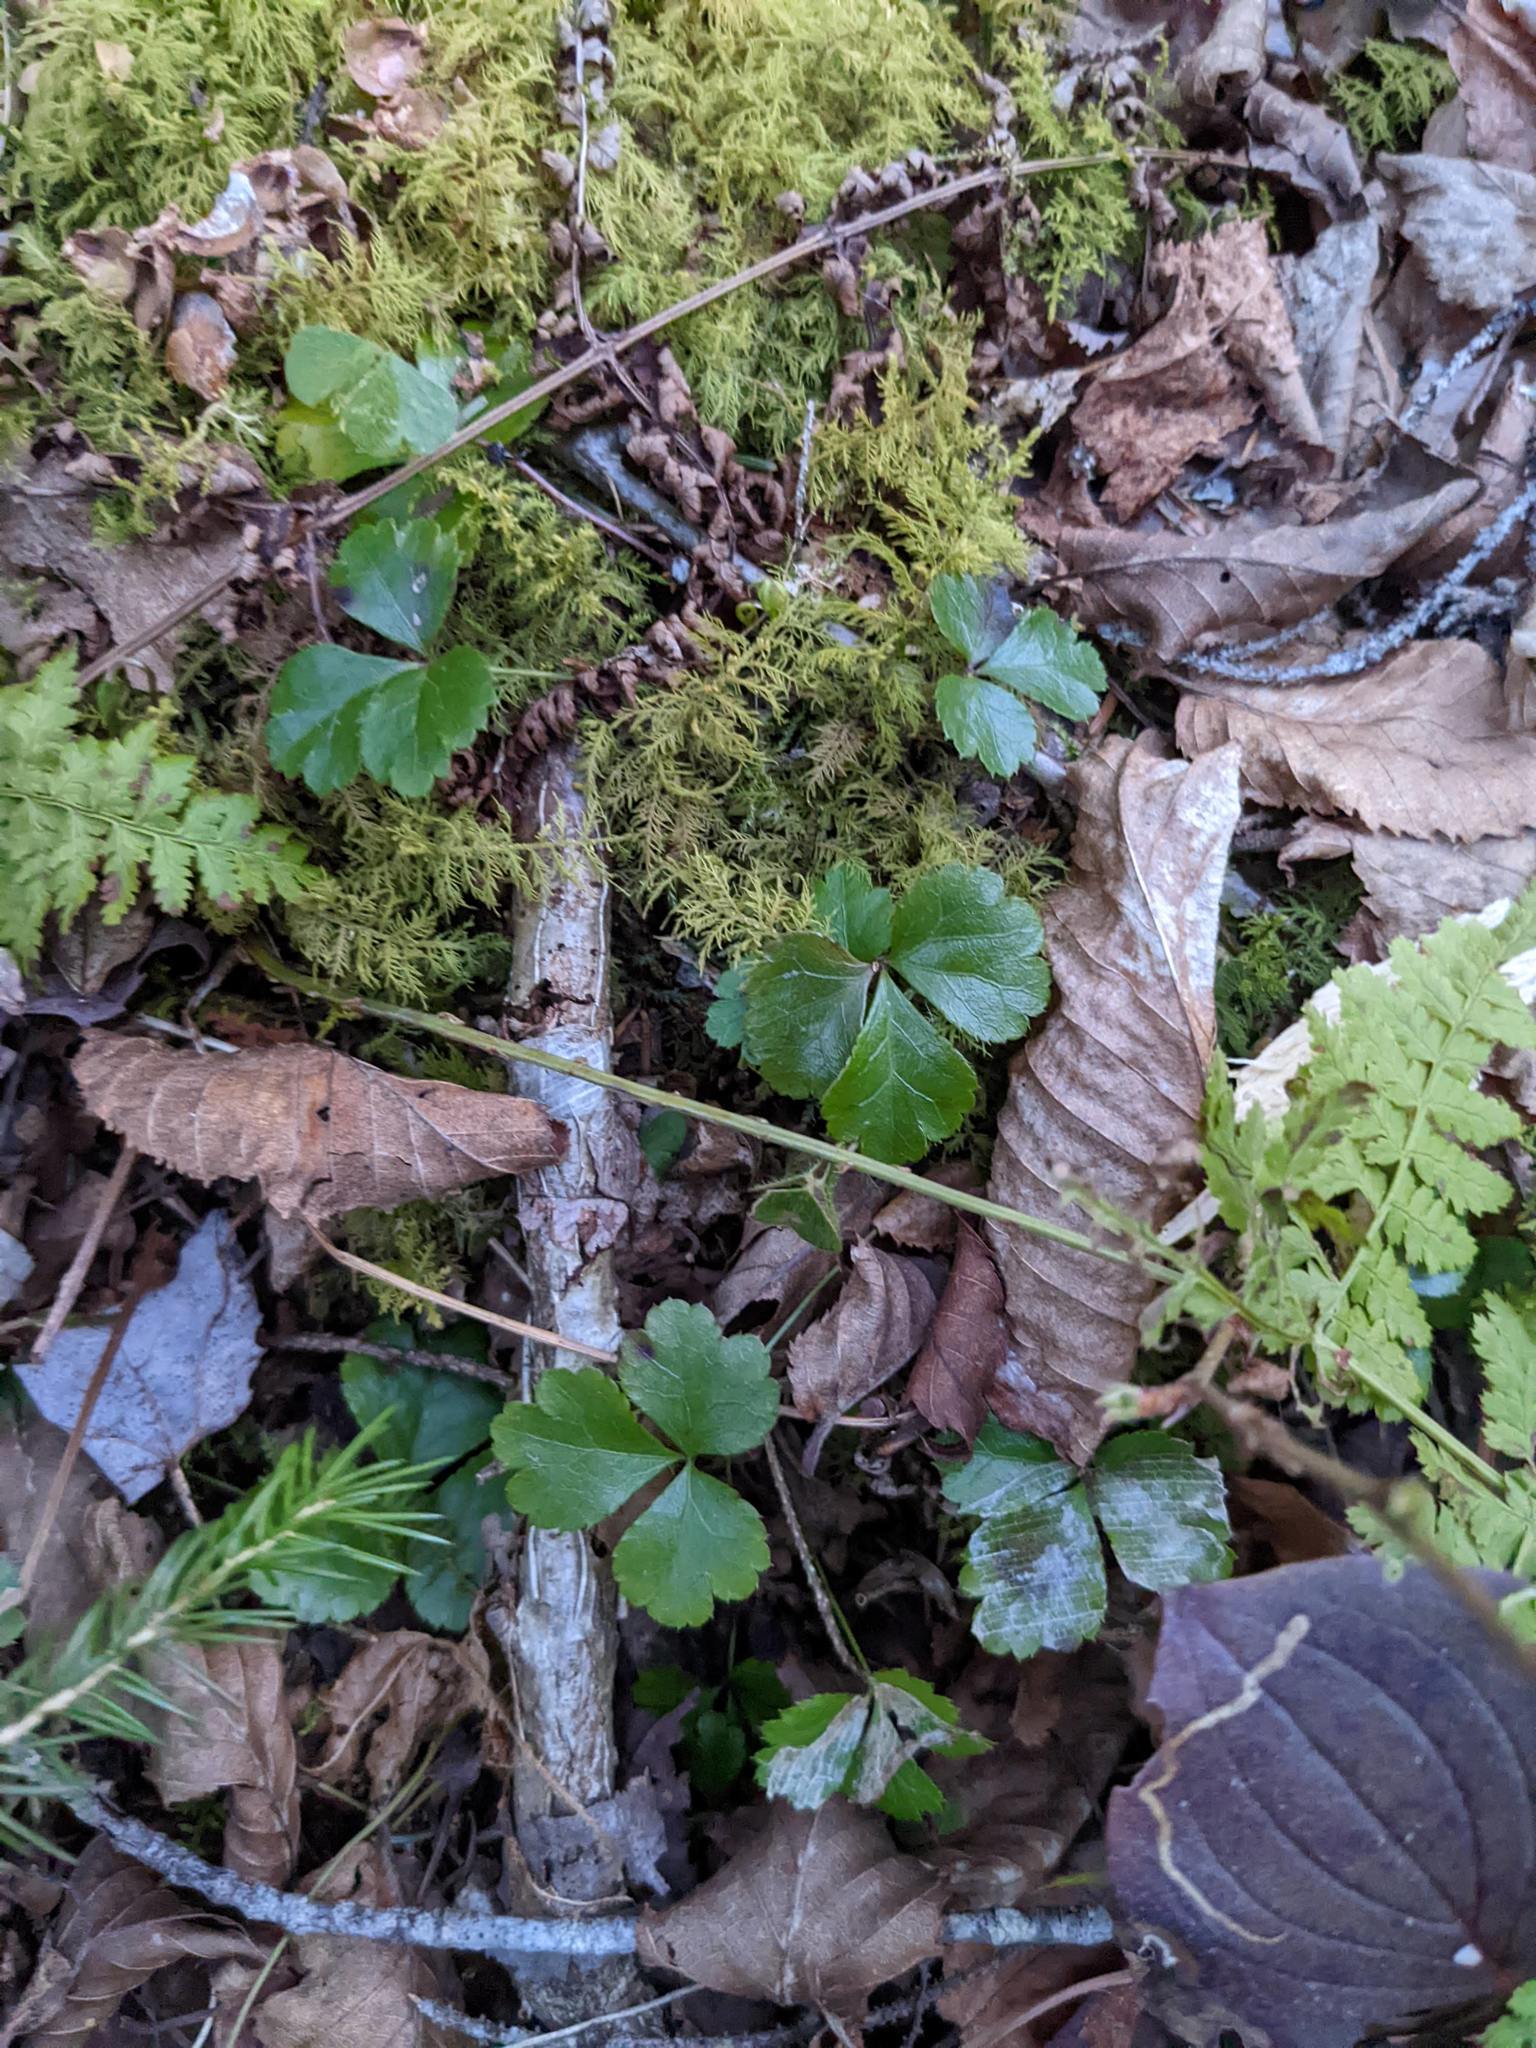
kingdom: Plantae
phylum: Tracheophyta
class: Magnoliopsida
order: Ranunculales
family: Ranunculaceae
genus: Coptis
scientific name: Coptis trifolia
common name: Canker-root
